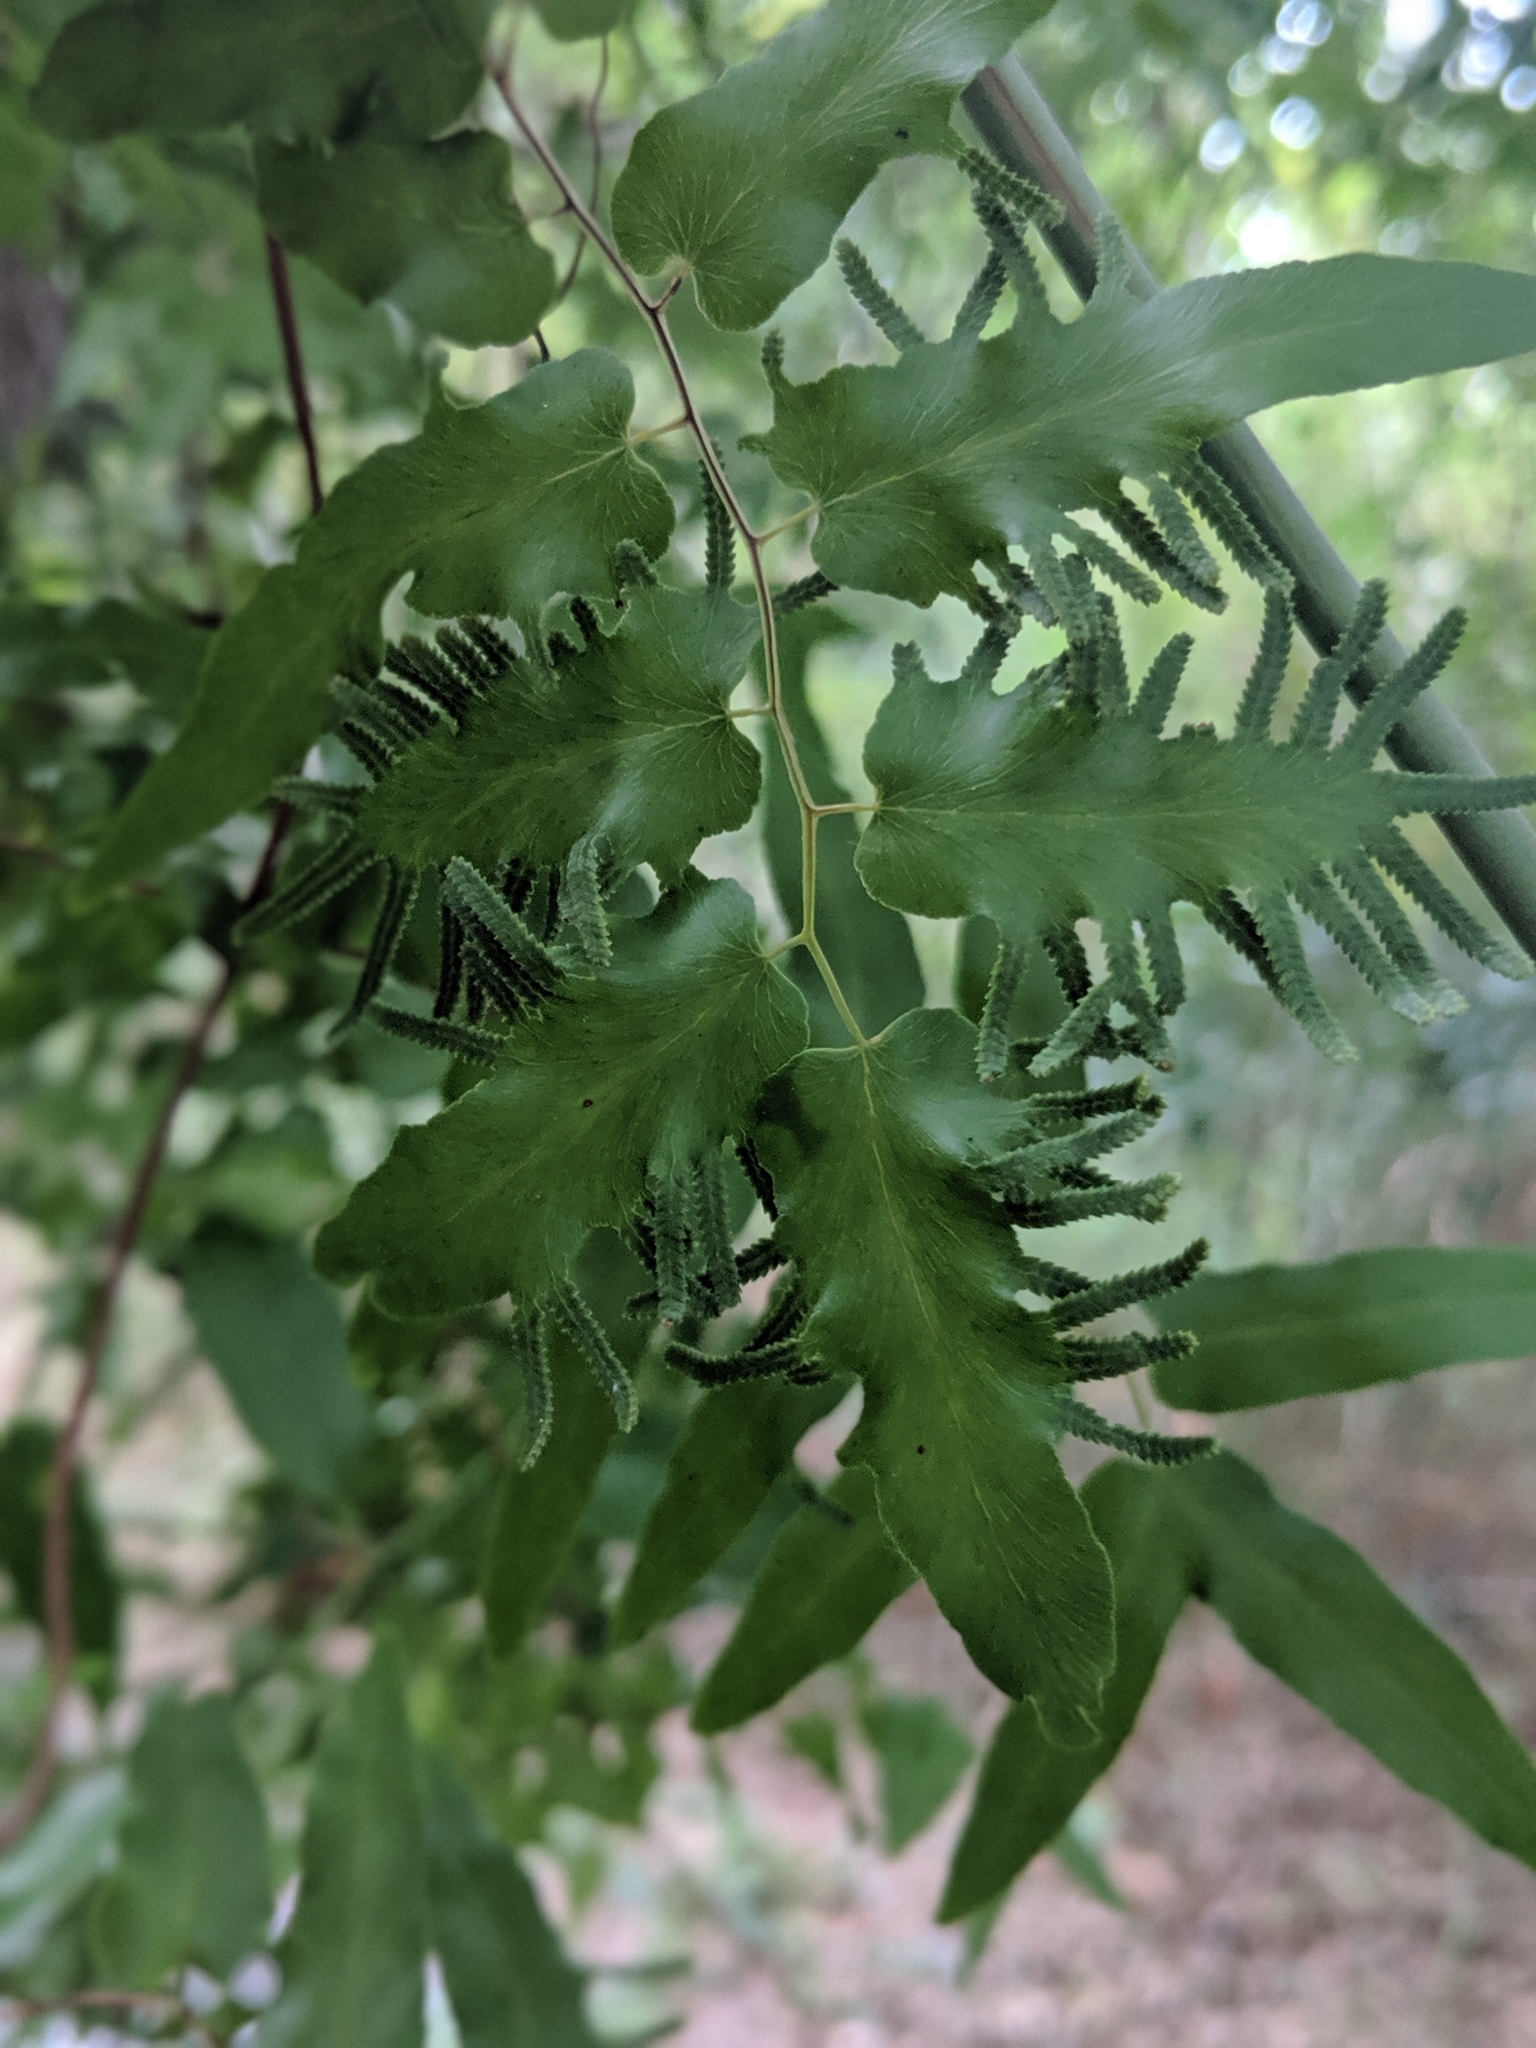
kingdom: Plantae
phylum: Tracheophyta
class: Polypodiopsida
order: Schizaeales
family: Lygodiaceae
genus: Lygodium
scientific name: Lygodium japonicum
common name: Japanese climbing fern
